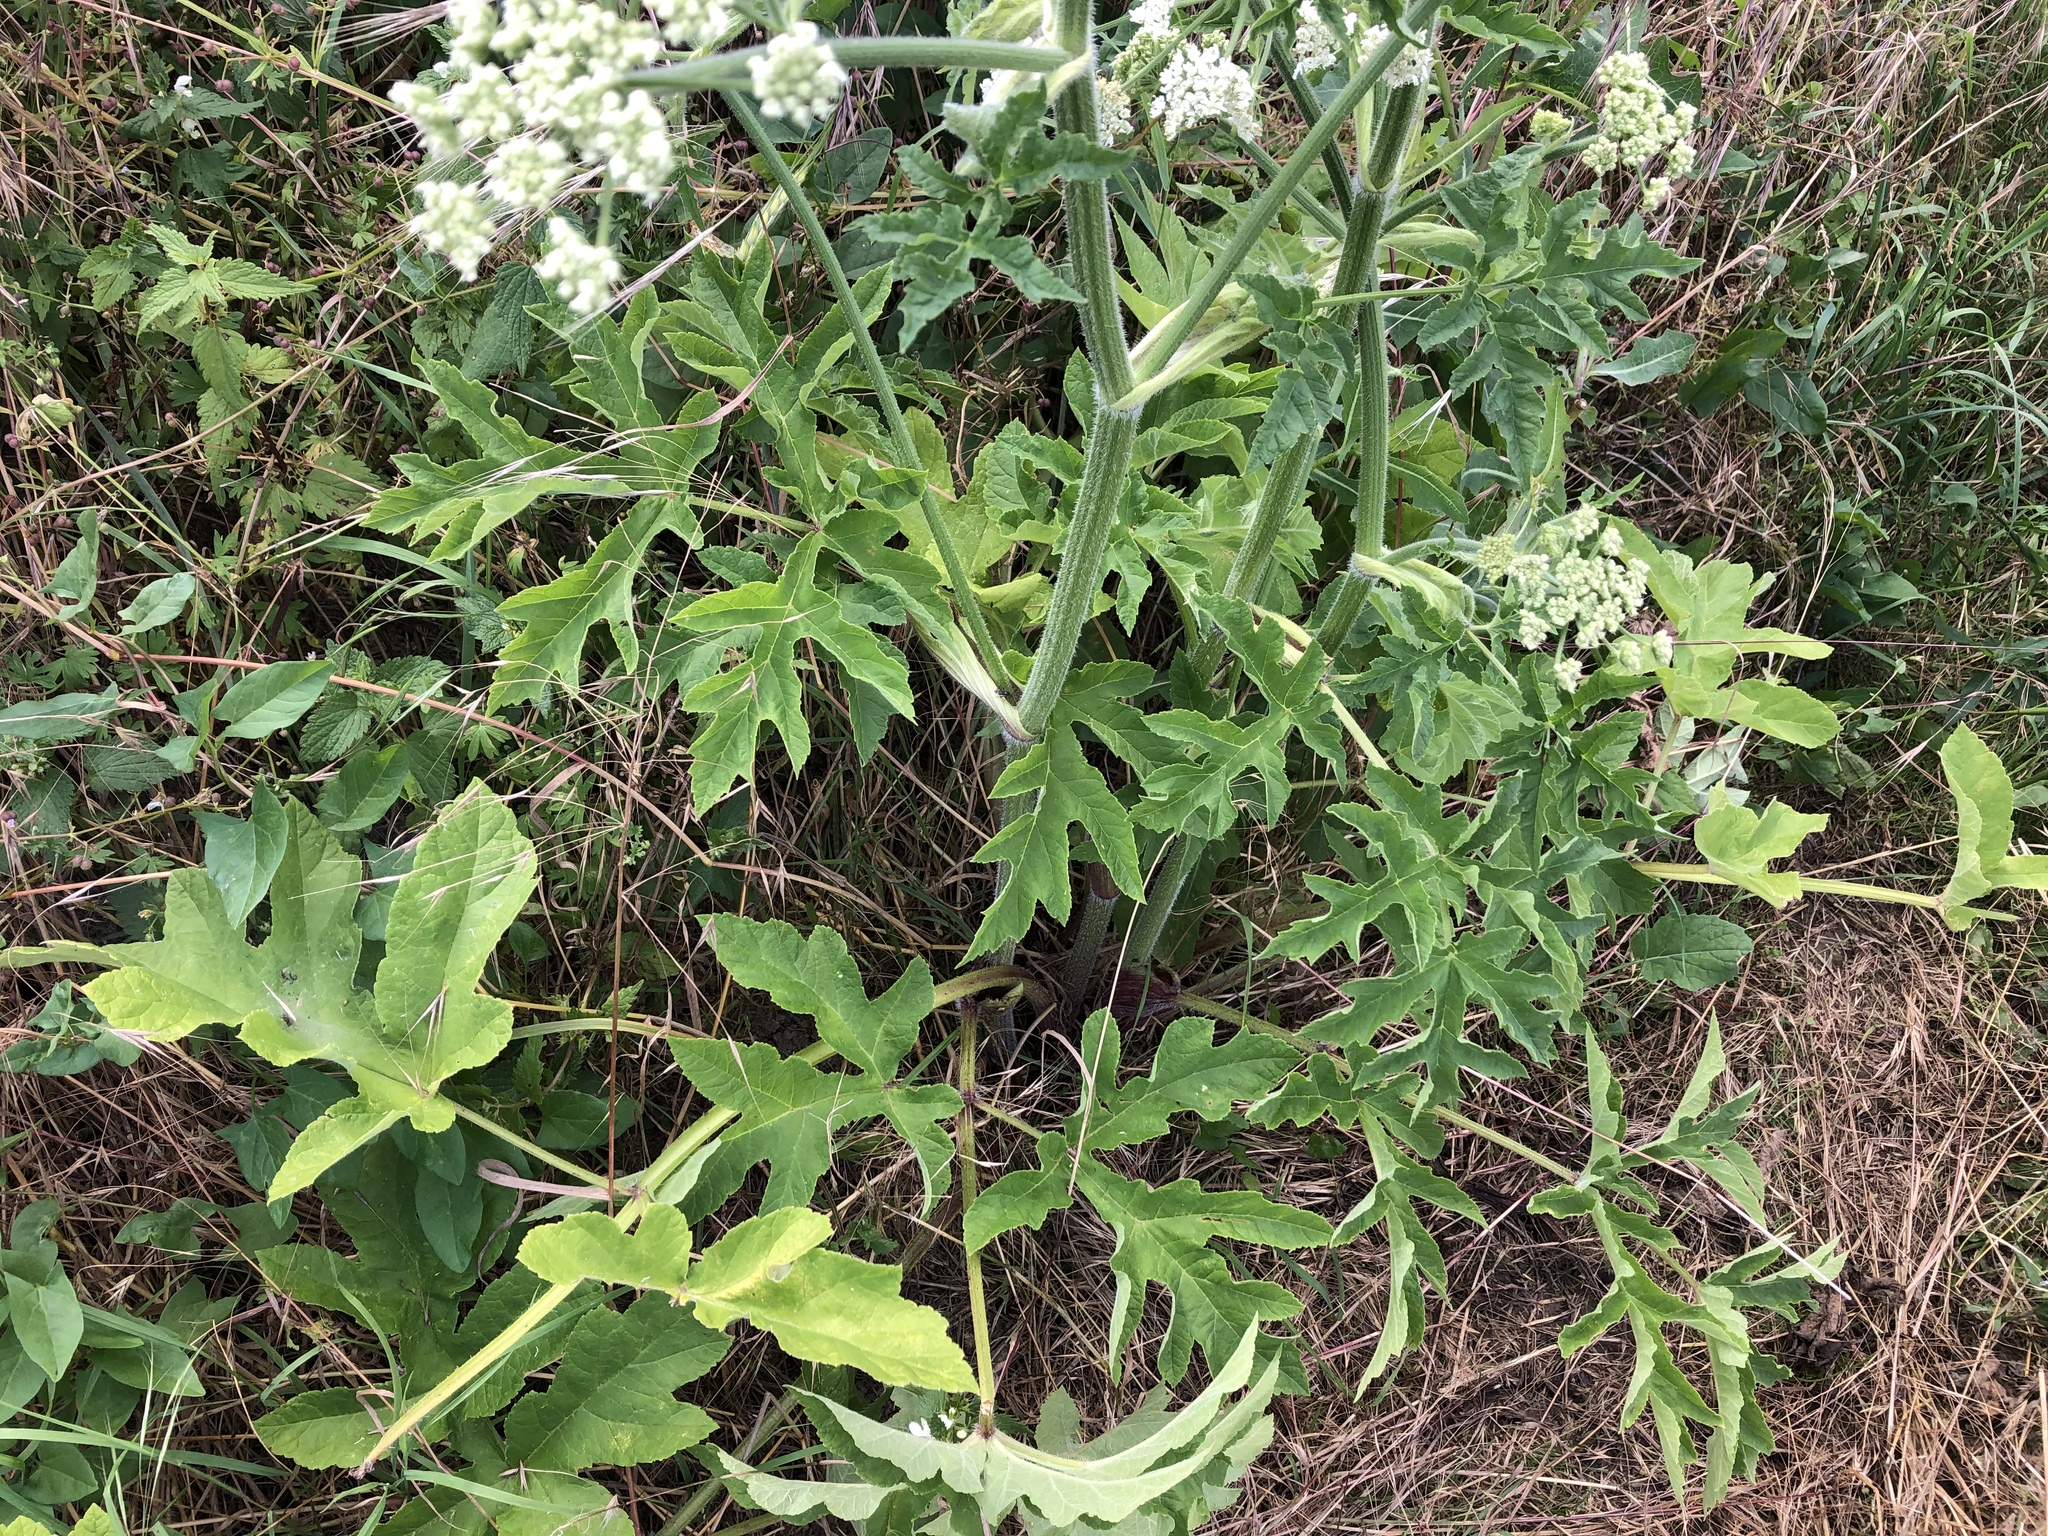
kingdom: Plantae
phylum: Tracheophyta
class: Magnoliopsida
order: Apiales
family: Apiaceae
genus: Heracleum
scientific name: Heracleum sphondylium
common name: Hogweed
